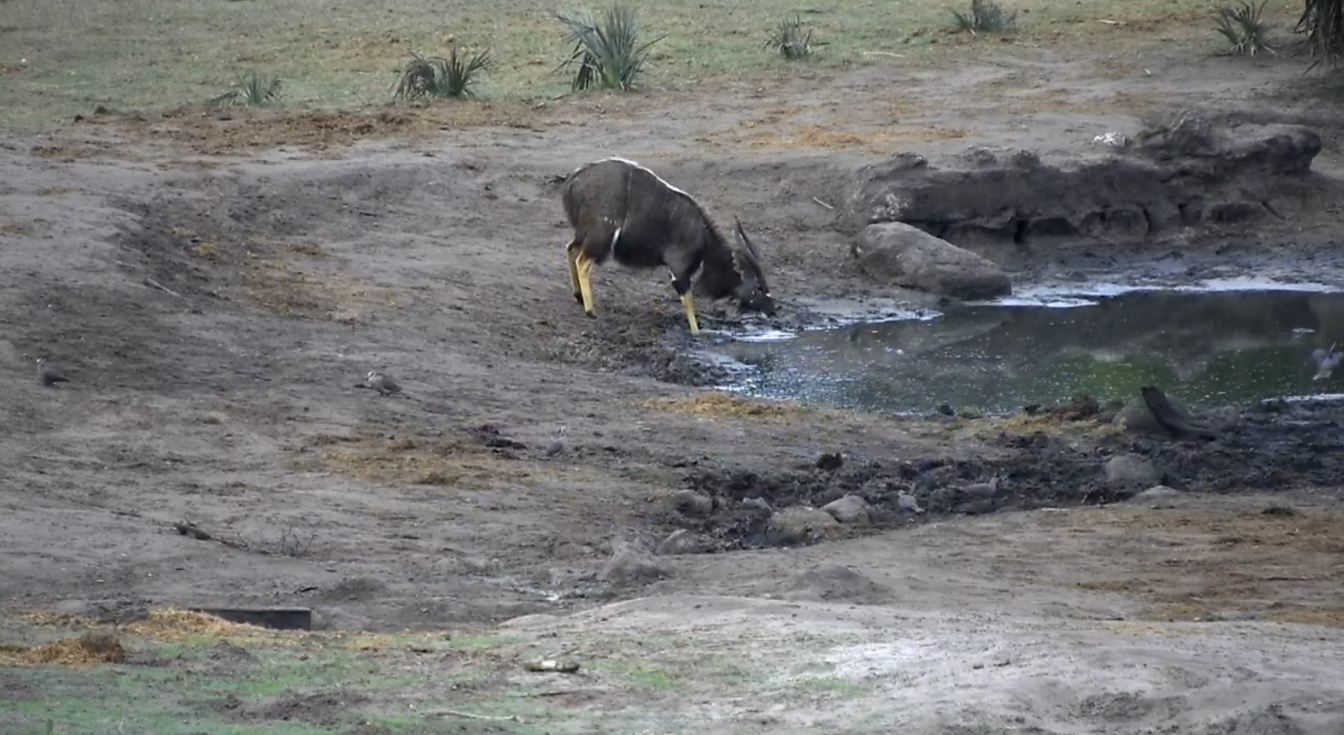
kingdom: Animalia
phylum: Chordata
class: Mammalia
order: Artiodactyla
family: Bovidae
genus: Tragelaphus
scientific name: Tragelaphus angasii
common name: Nyala
